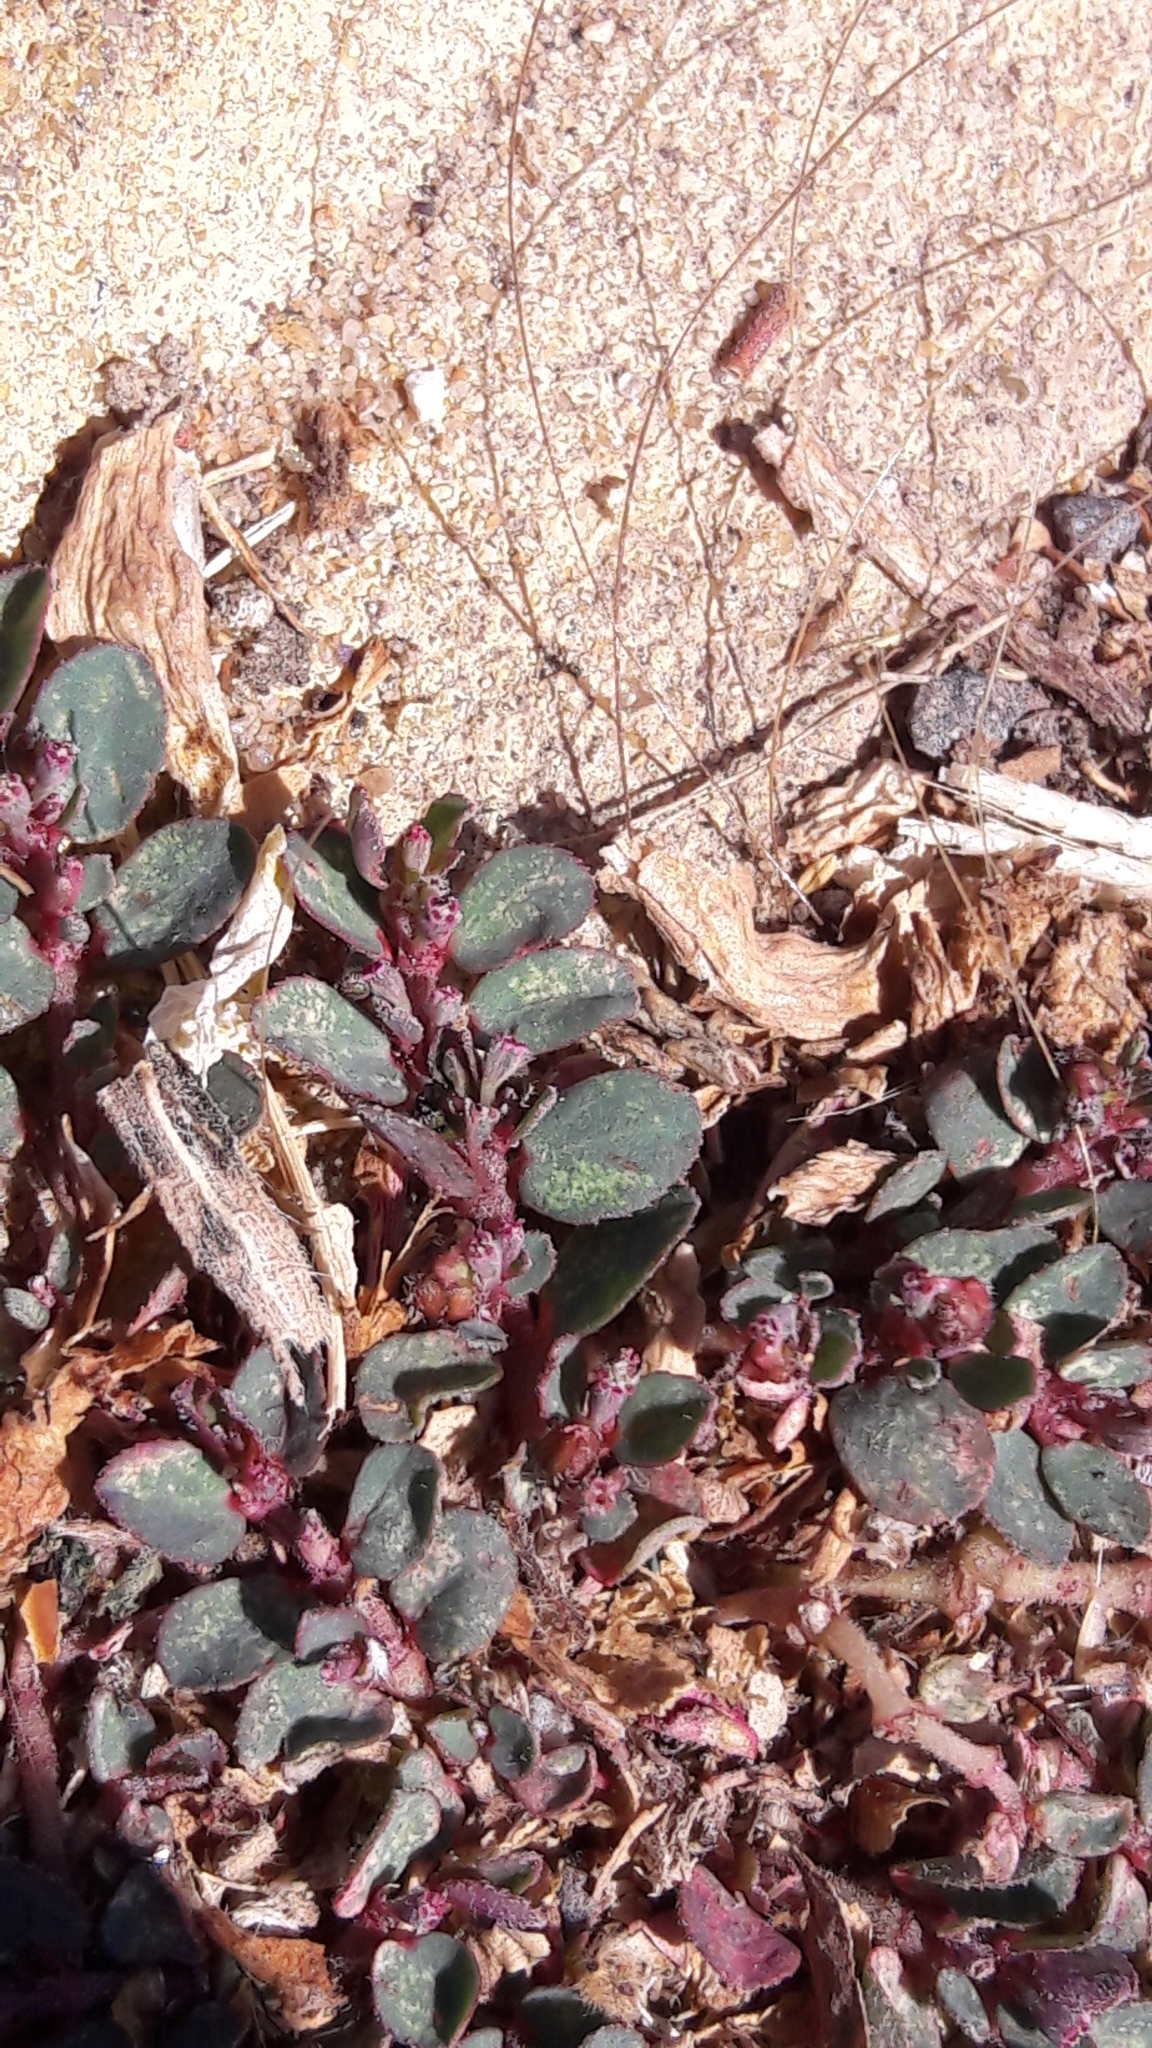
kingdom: Plantae
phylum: Tracheophyta
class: Magnoliopsida
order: Malpighiales
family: Euphorbiaceae
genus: Euphorbia
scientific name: Euphorbia prostrata
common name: Prostrate sandmat
